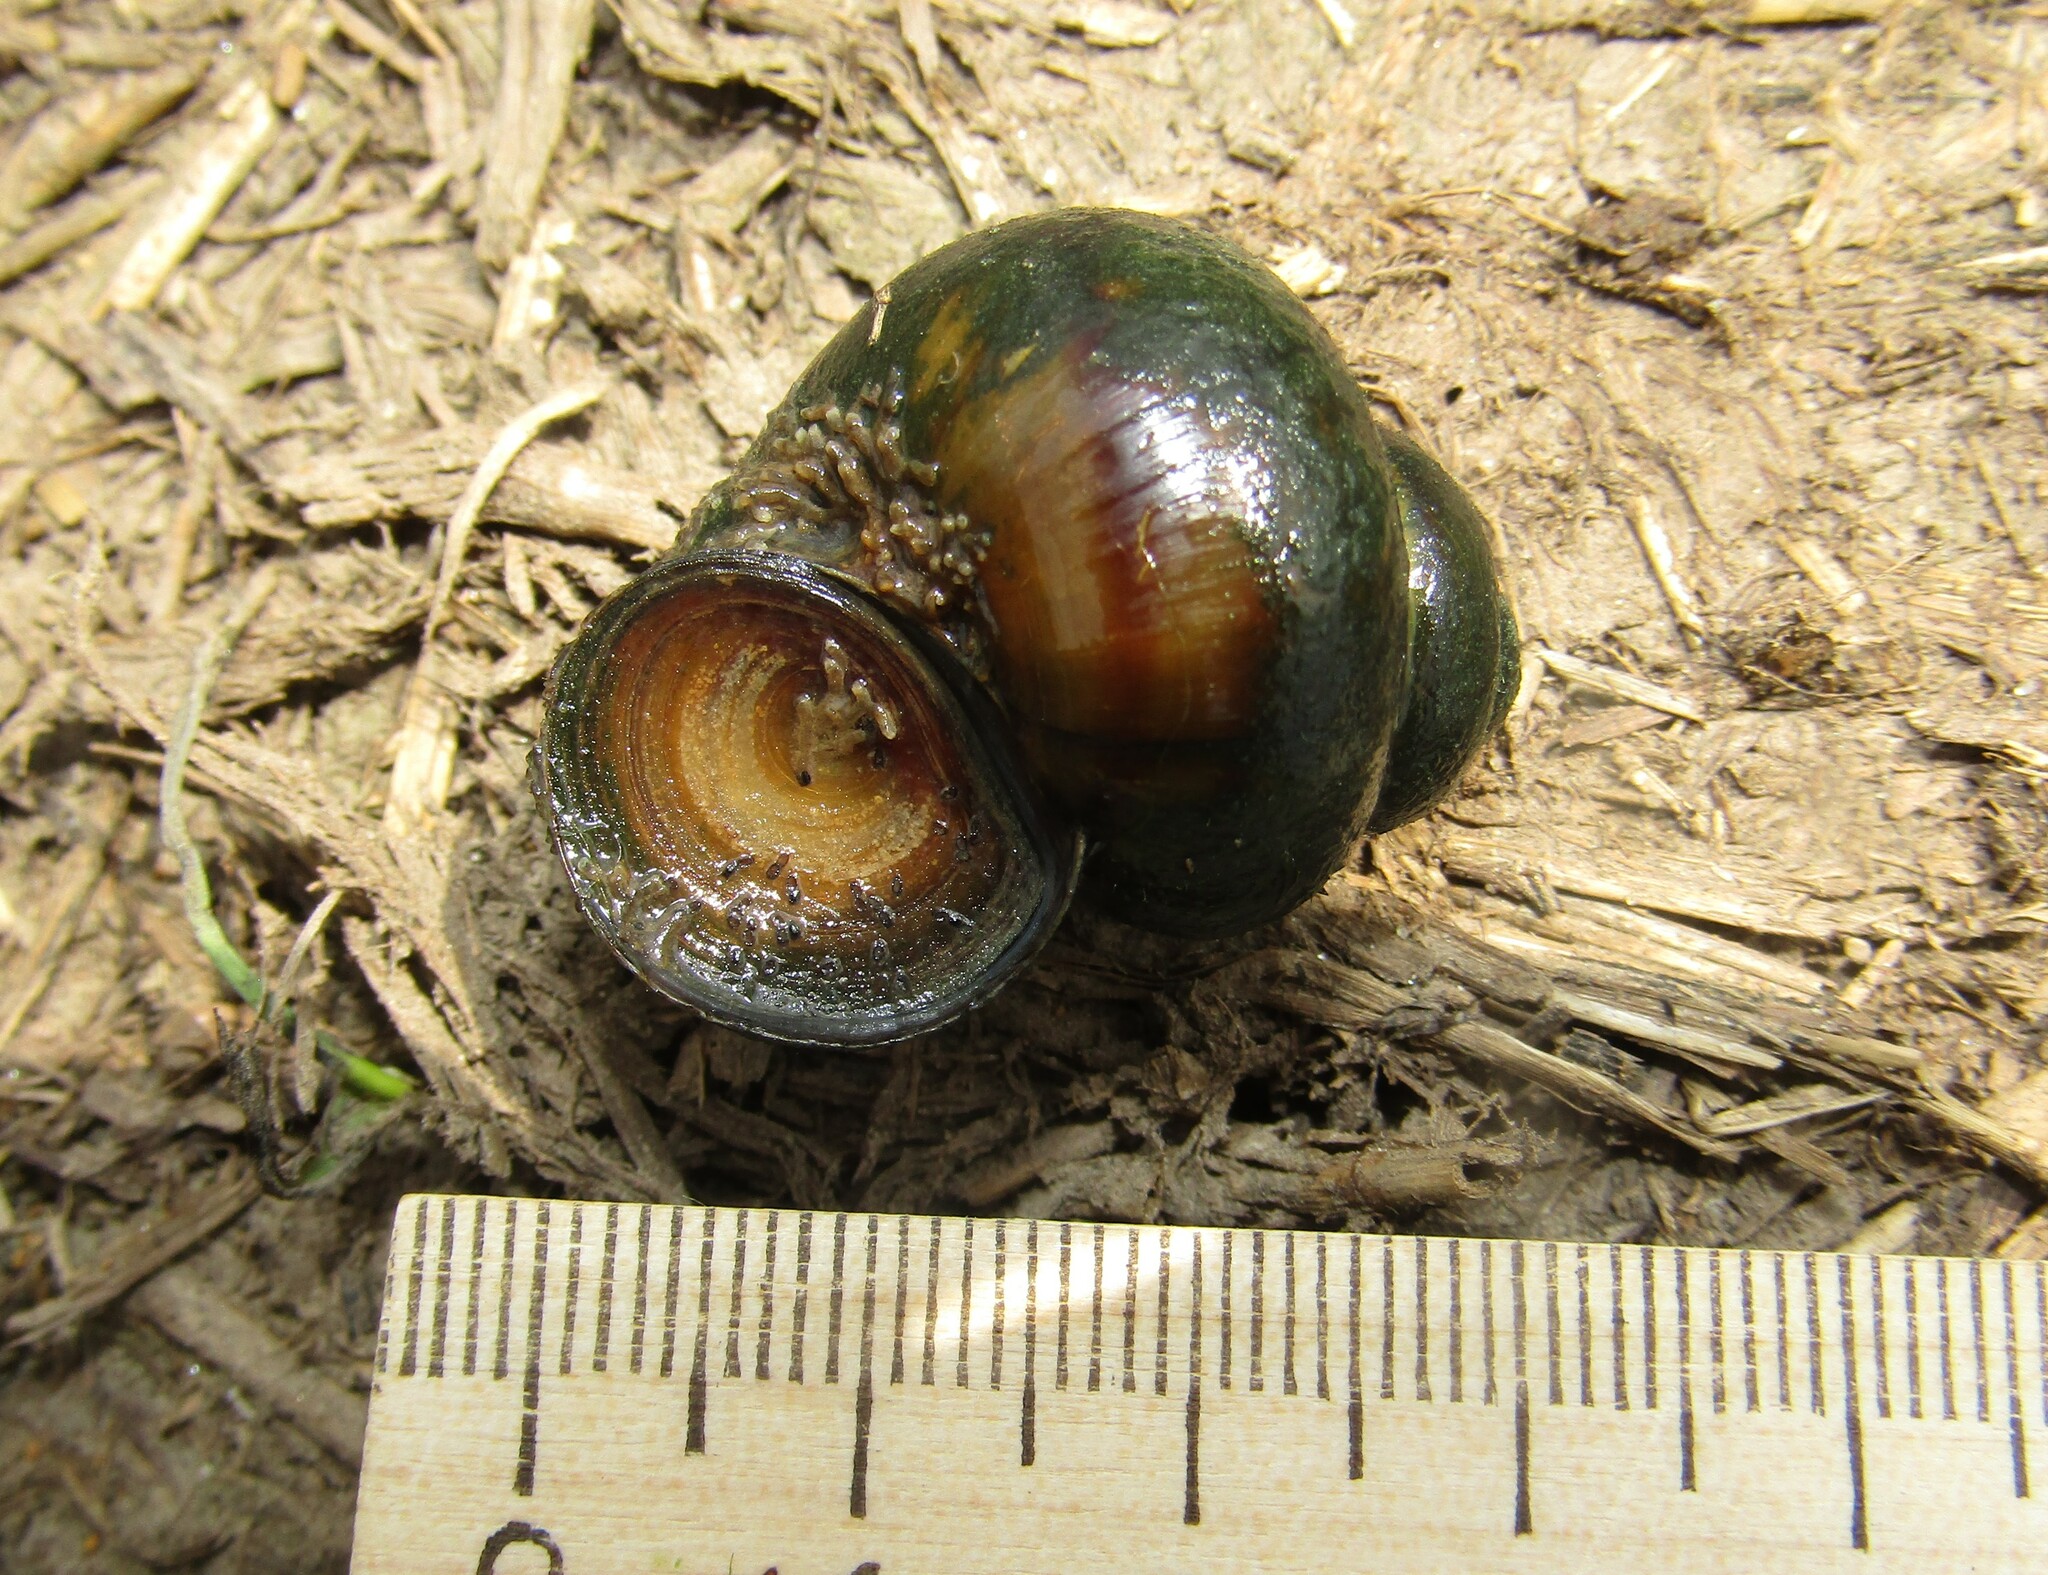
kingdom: Animalia
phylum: Mollusca
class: Gastropoda
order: Architaenioglossa
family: Viviparidae
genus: Viviparus
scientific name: Viviparus contectus
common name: Lister's river snail
